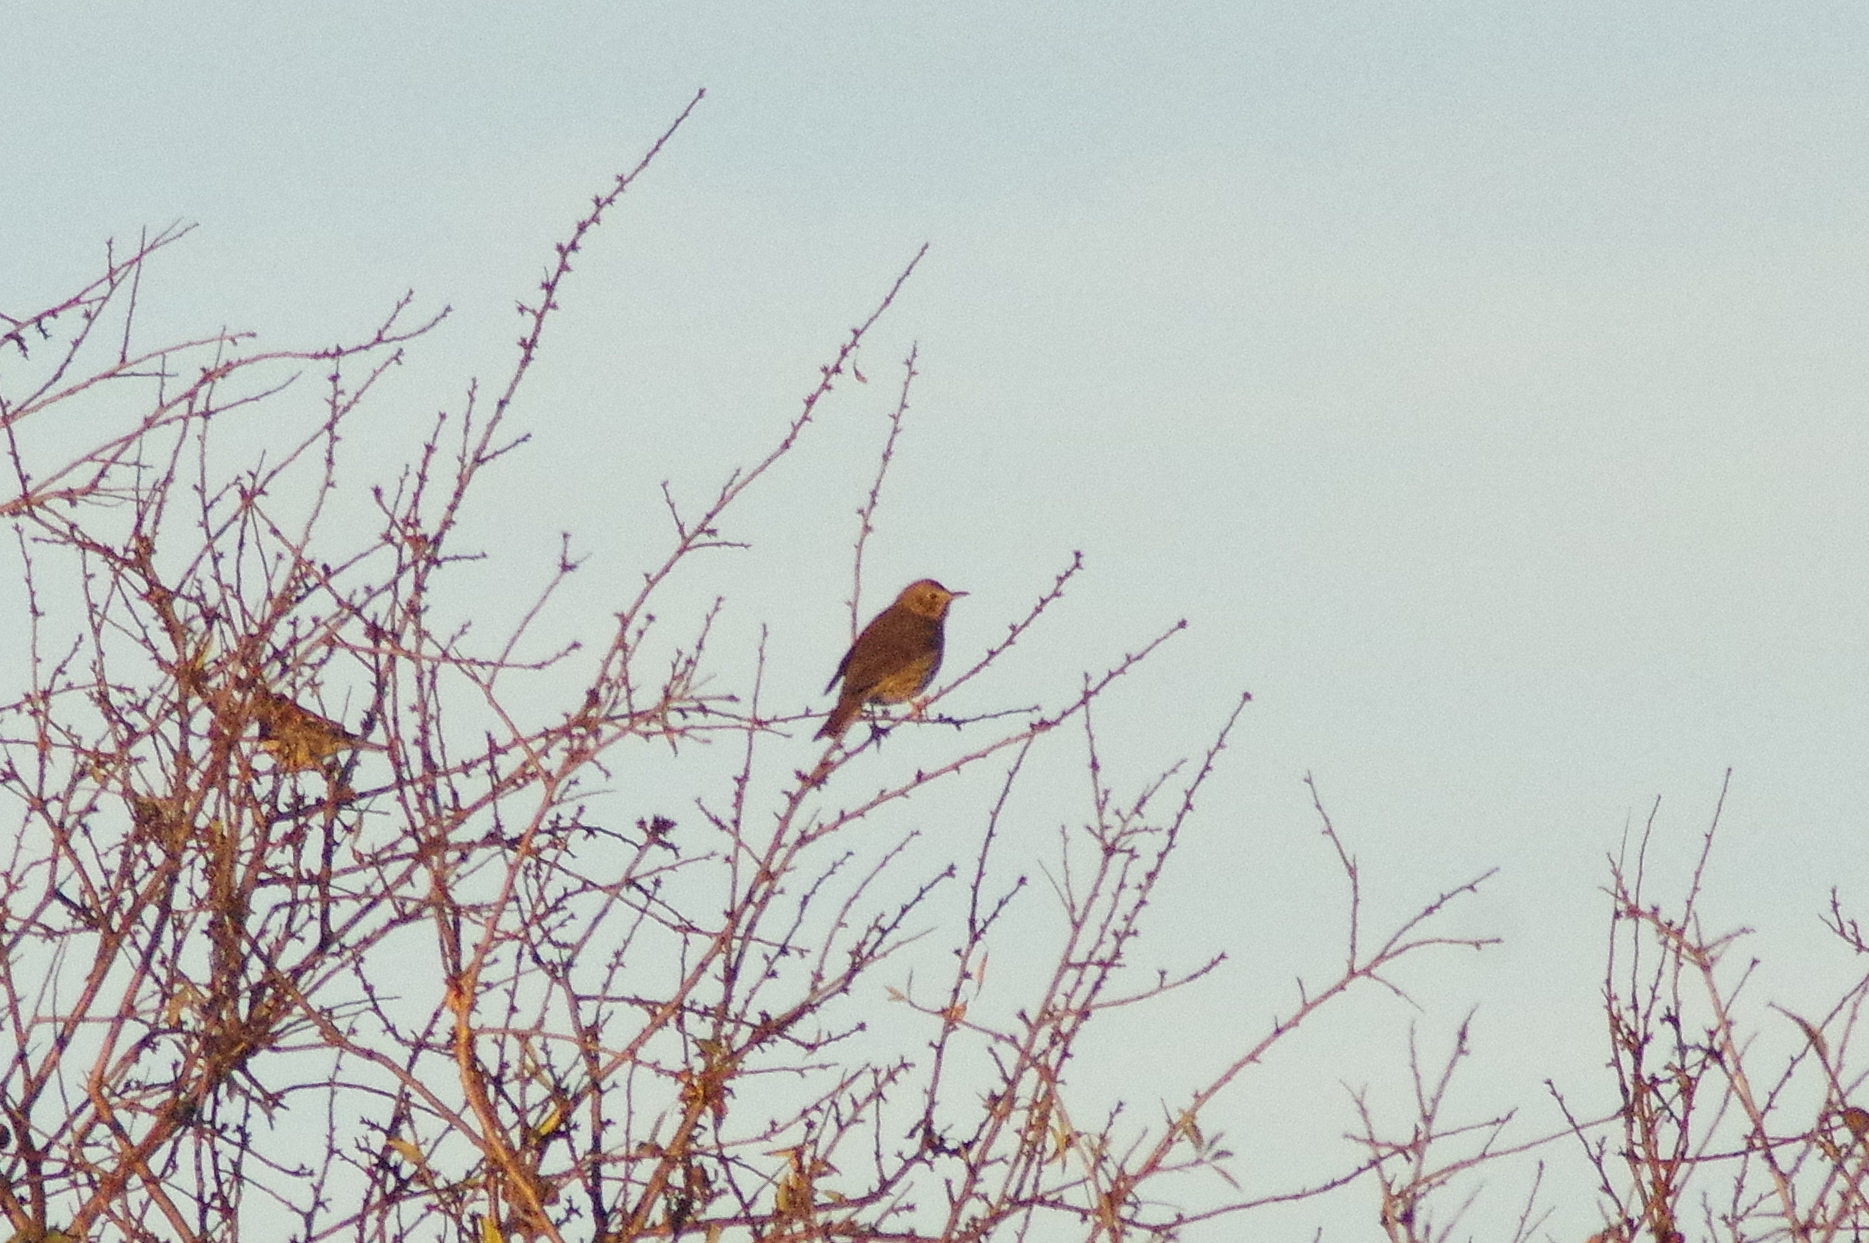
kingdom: Animalia
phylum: Chordata
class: Aves
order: Passeriformes
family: Turdidae
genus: Turdus
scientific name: Turdus philomelos
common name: Song thrush
